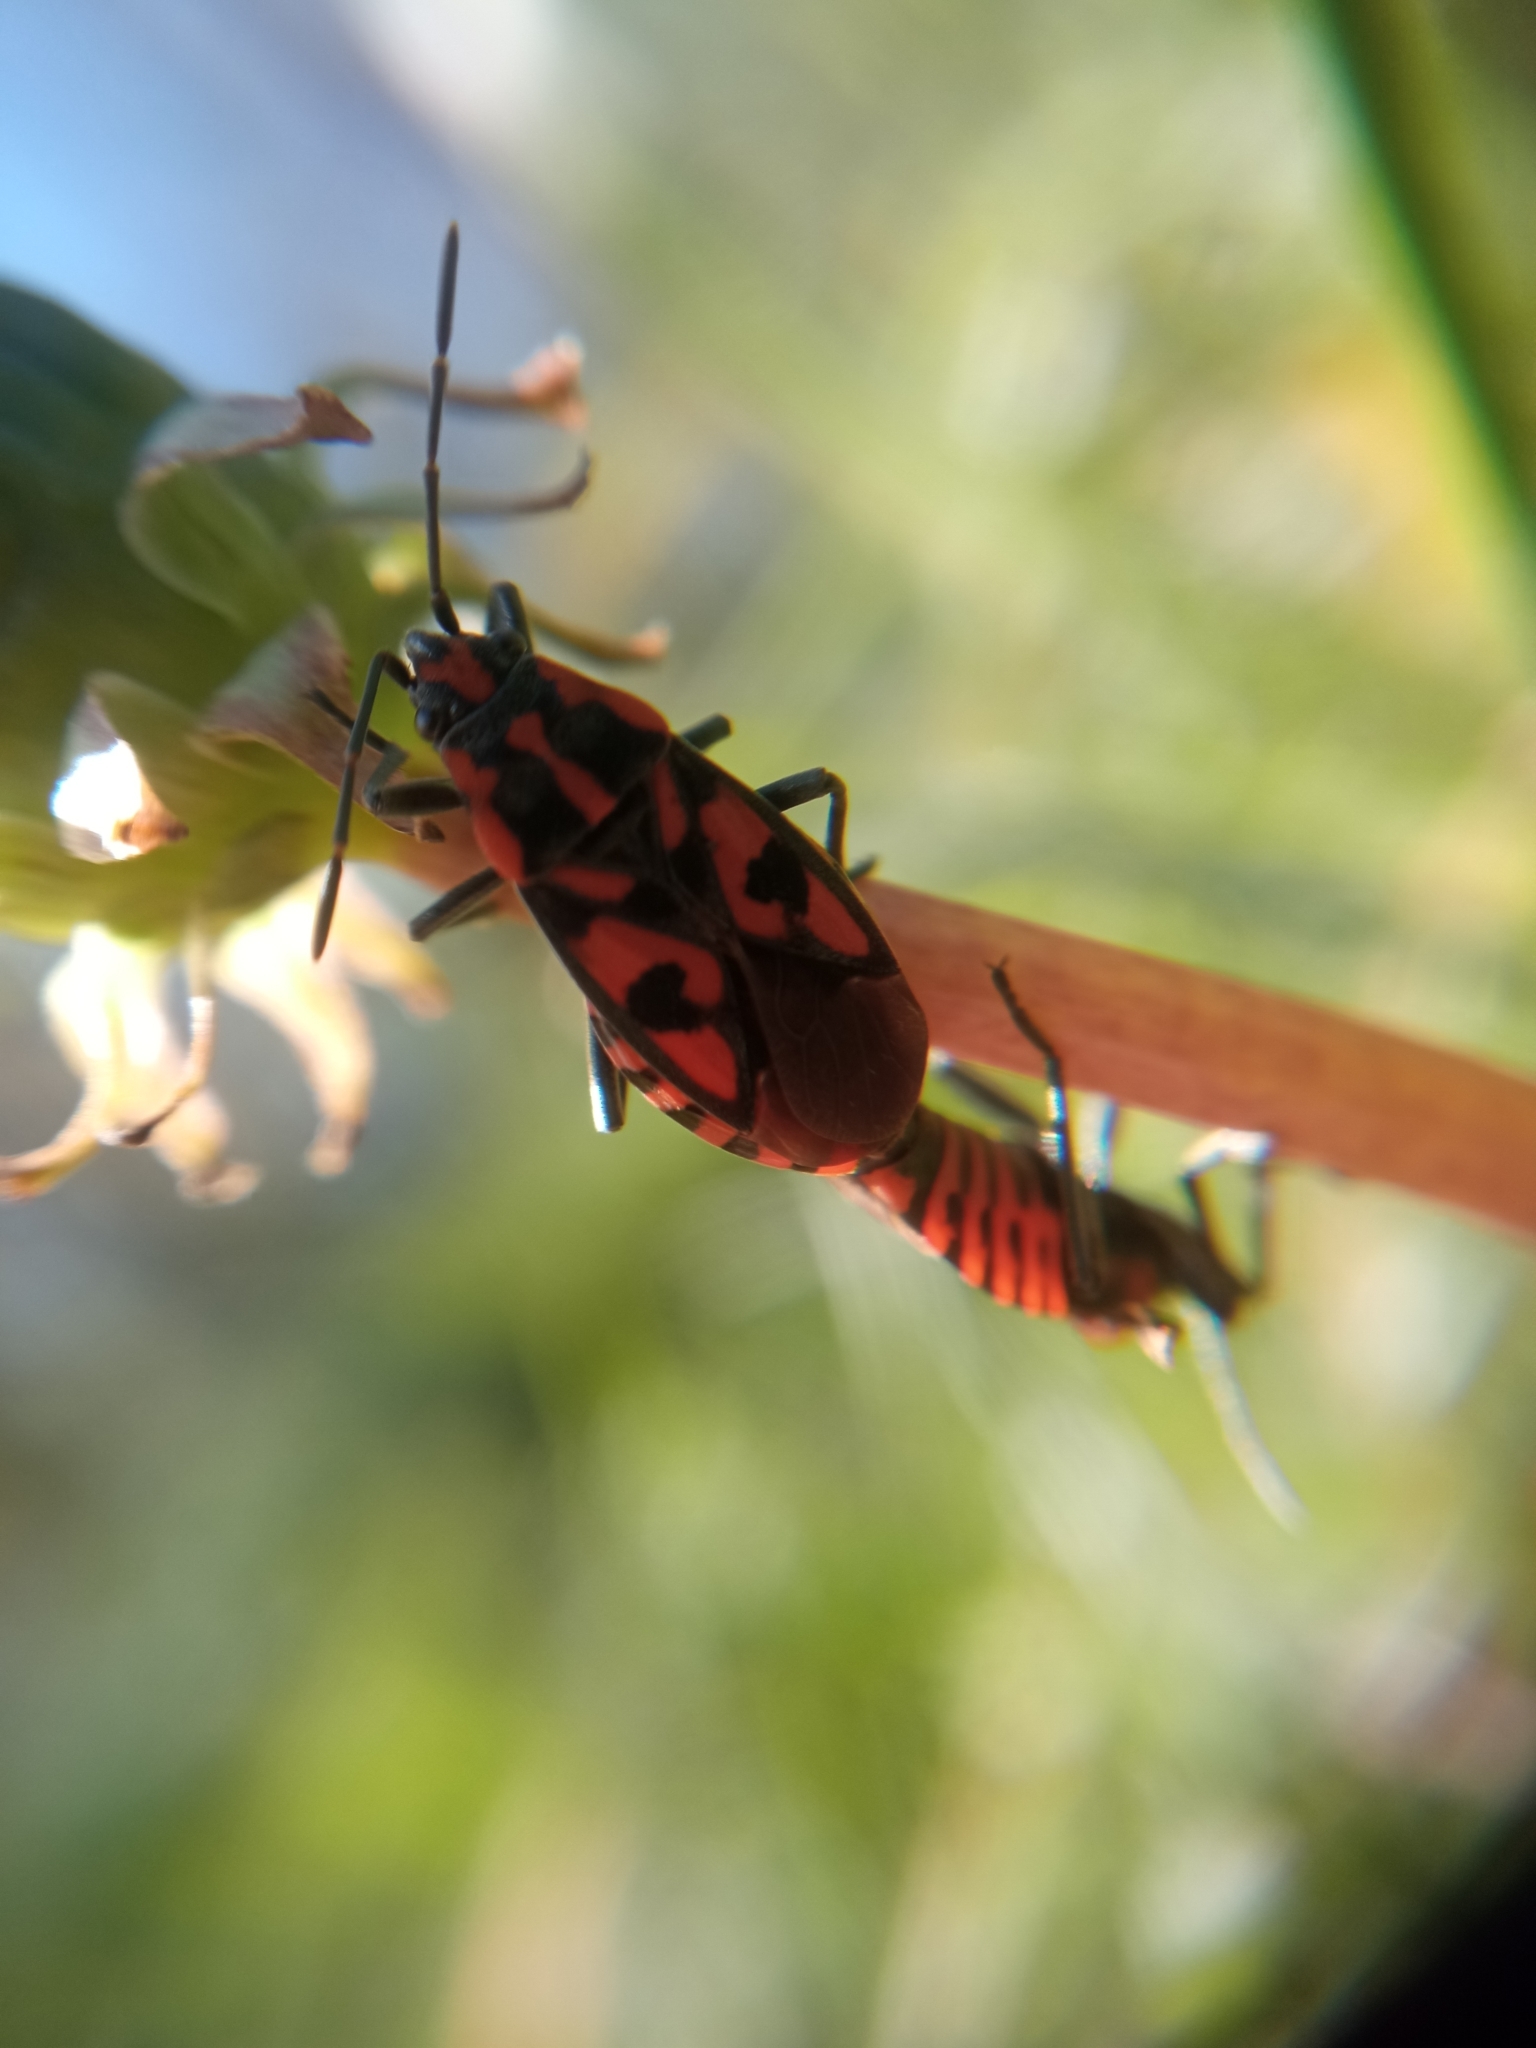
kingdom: Animalia
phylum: Arthropoda
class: Insecta
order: Hemiptera
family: Lygaeidae
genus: Spilostethus
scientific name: Spilostethus saxatilis
